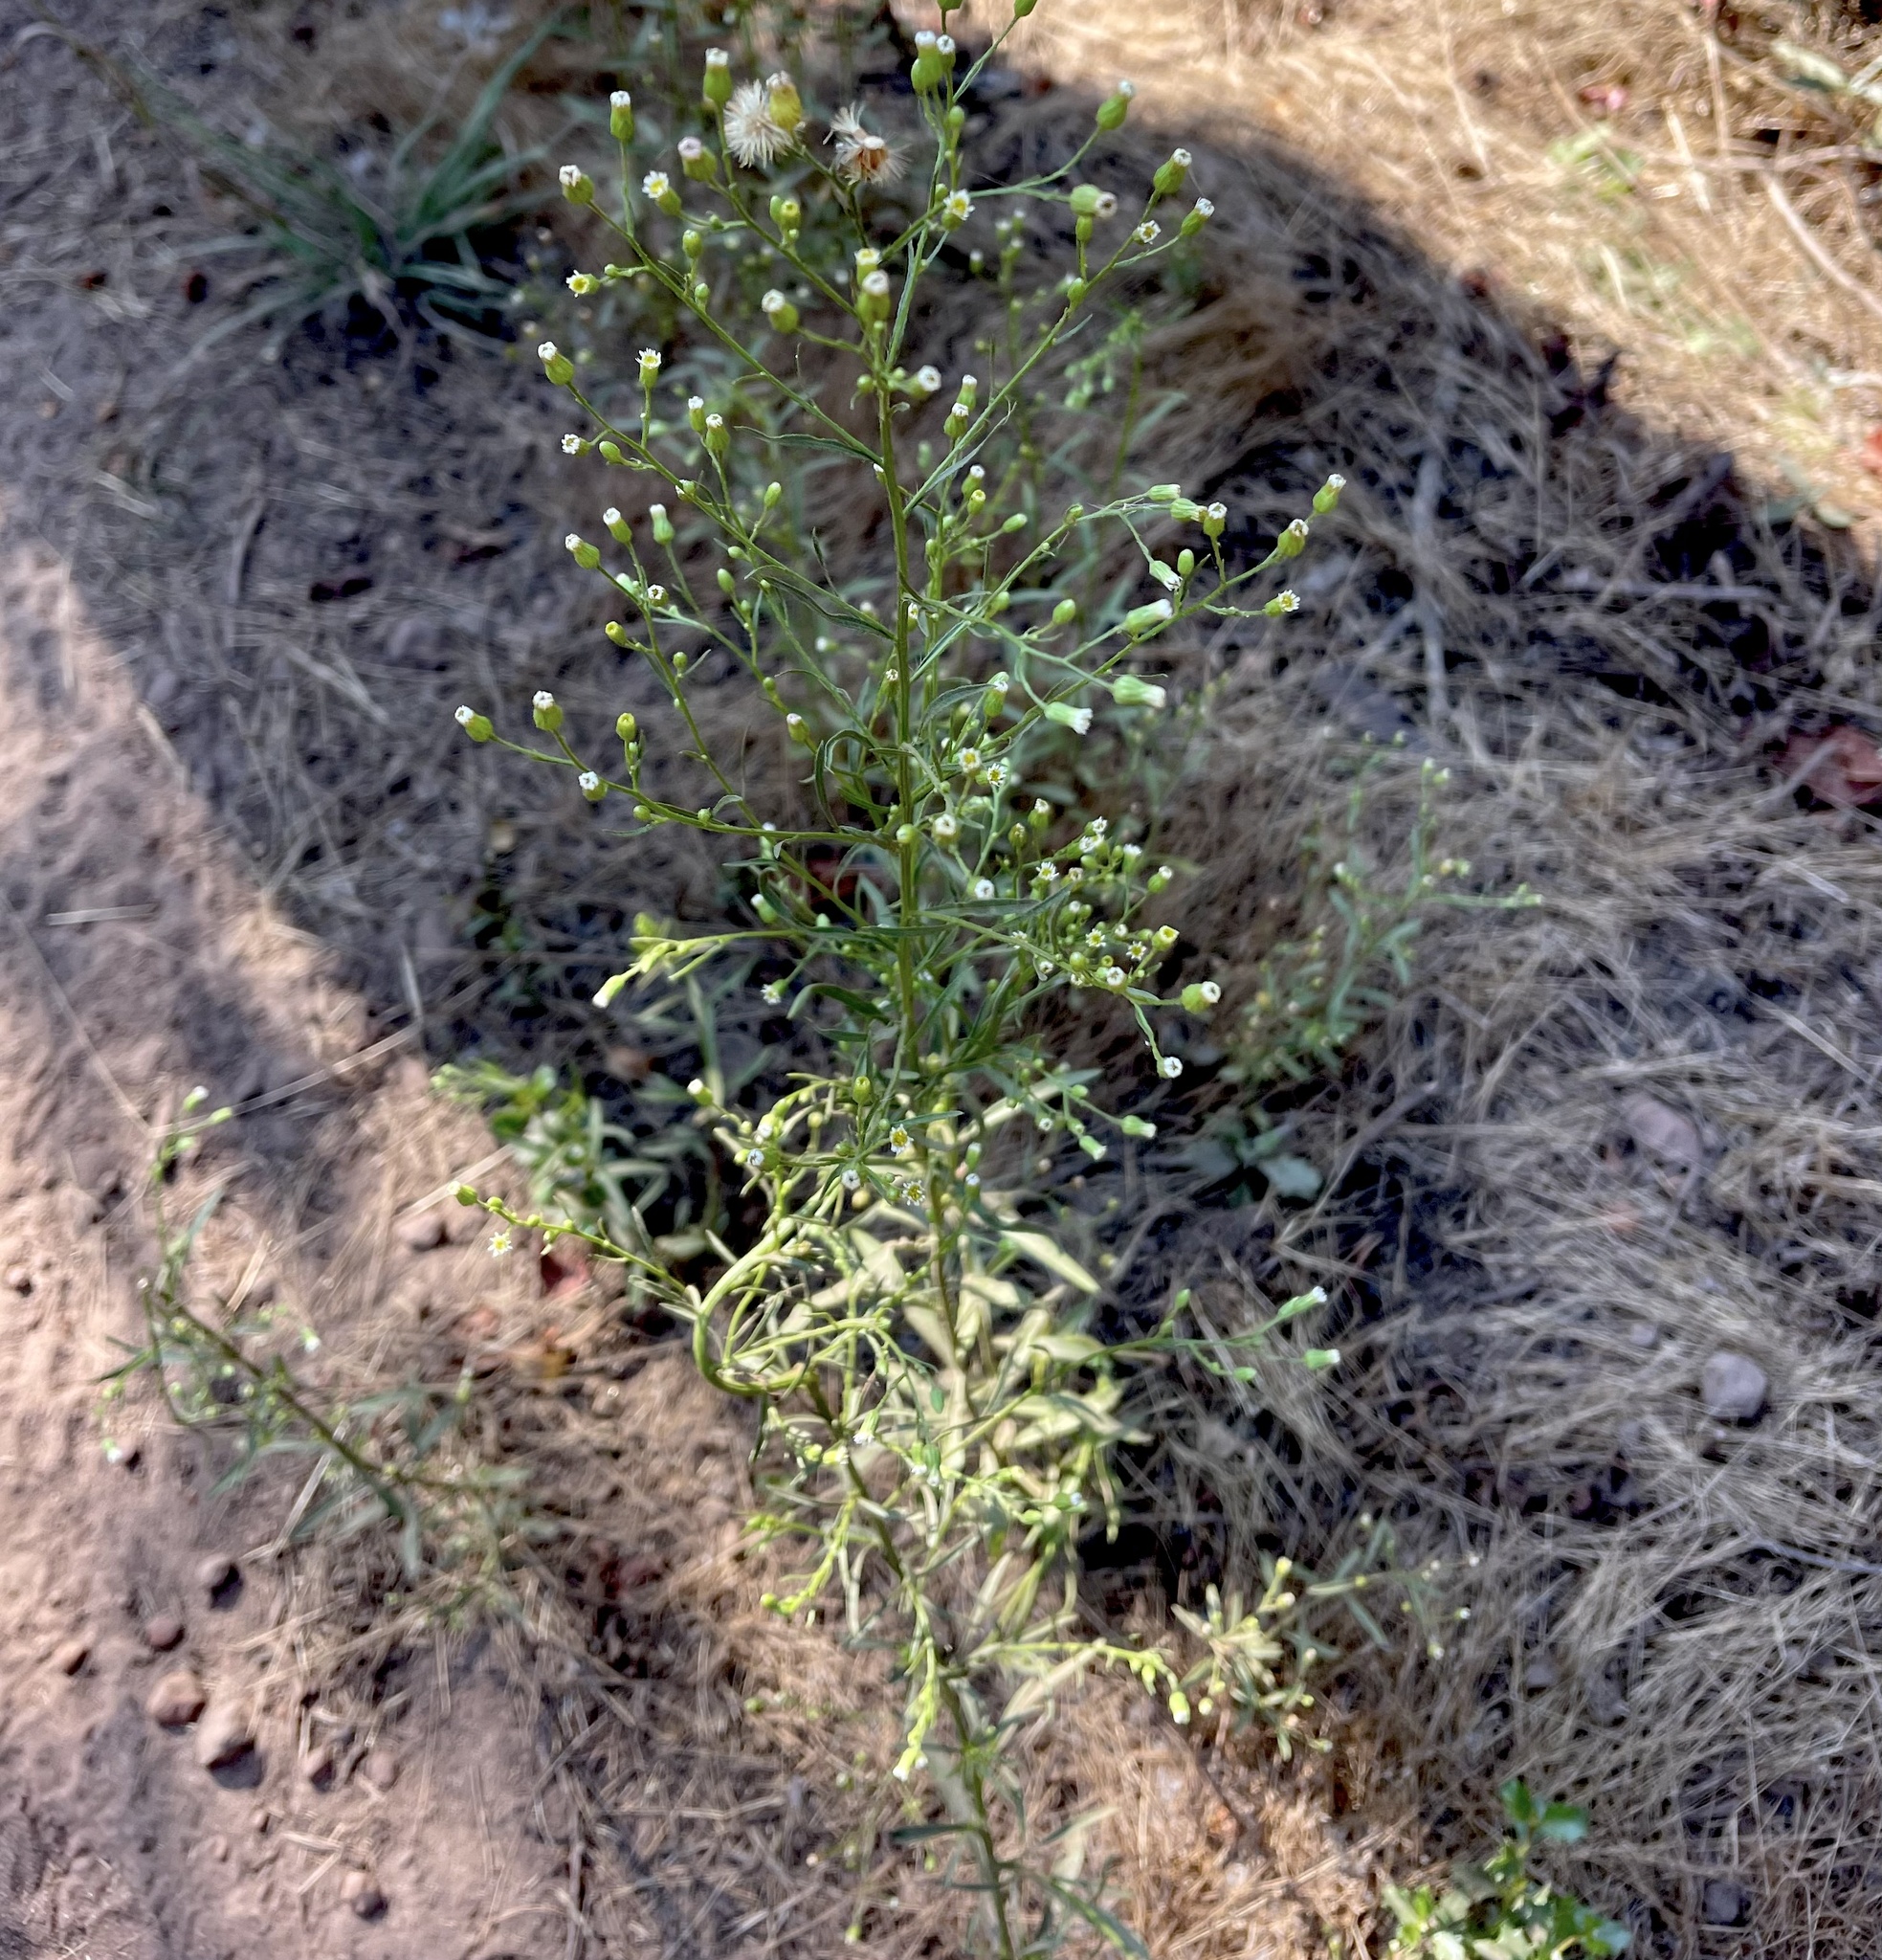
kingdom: Plantae
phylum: Tracheophyta
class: Magnoliopsida
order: Asterales
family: Asteraceae
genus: Erigeron
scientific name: Erigeron canadensis
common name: Canadian fleabane
